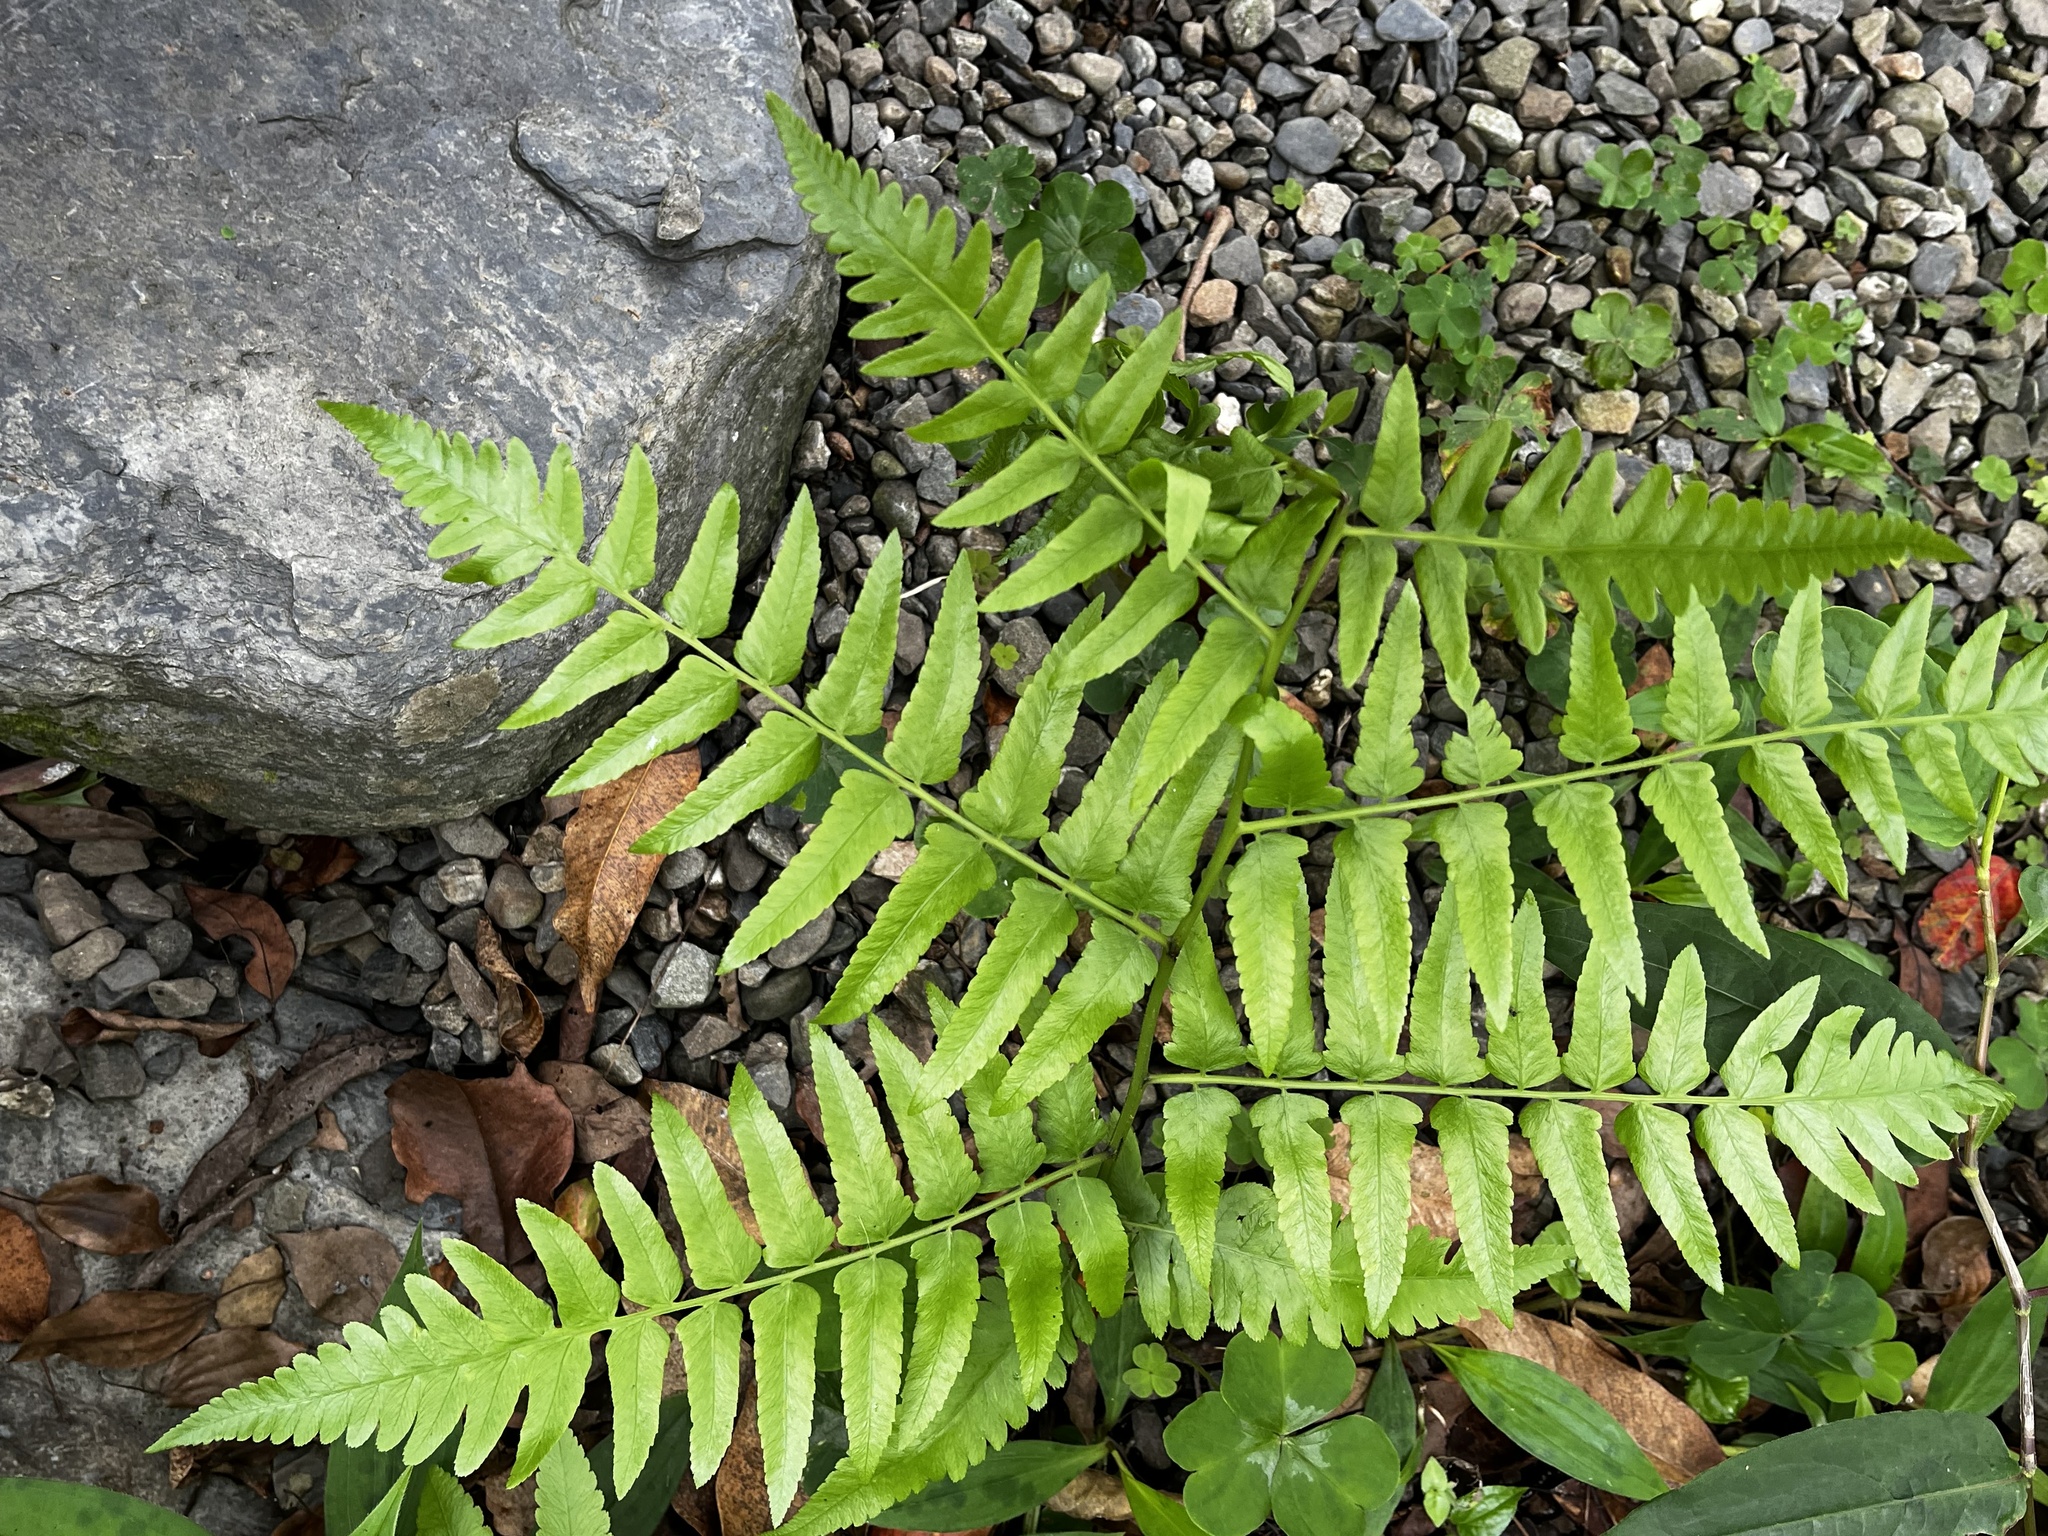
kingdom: Plantae
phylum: Tracheophyta
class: Polypodiopsida
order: Polypodiales
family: Athyriaceae
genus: Diplazium
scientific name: Diplazium esculentum
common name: Vegetable fern
